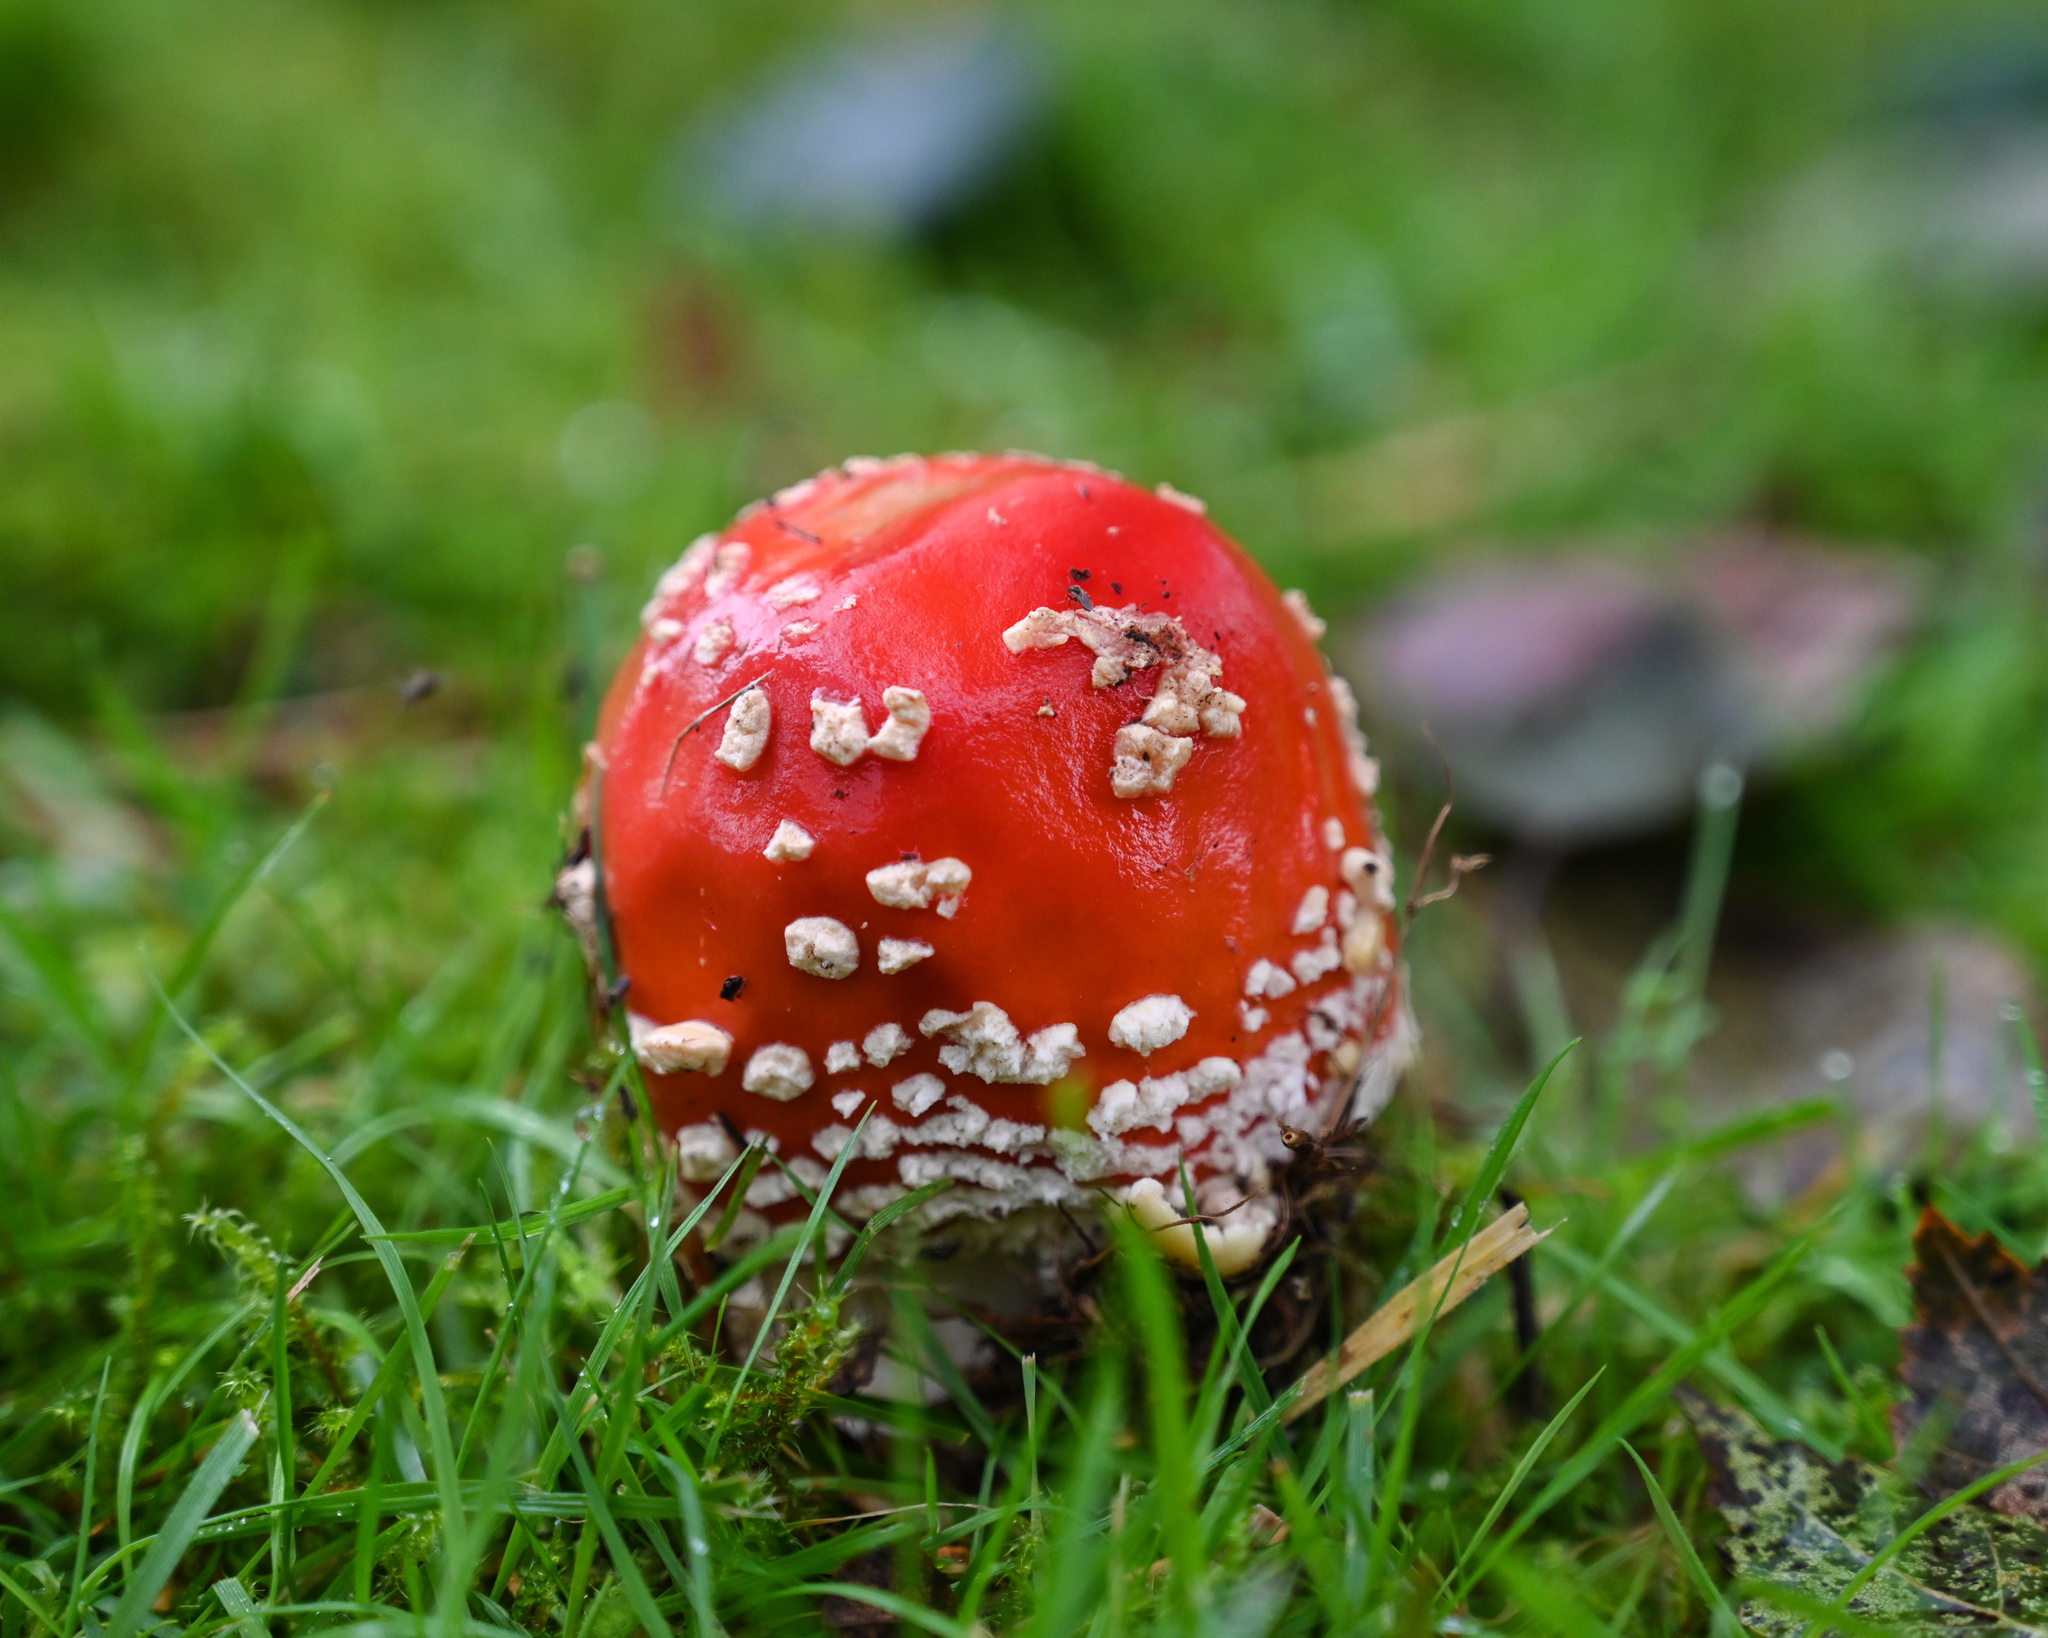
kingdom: Fungi
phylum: Basidiomycota
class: Agaricomycetes
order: Agaricales
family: Amanitaceae
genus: Amanita
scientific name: Amanita muscaria
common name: Fly agaric
